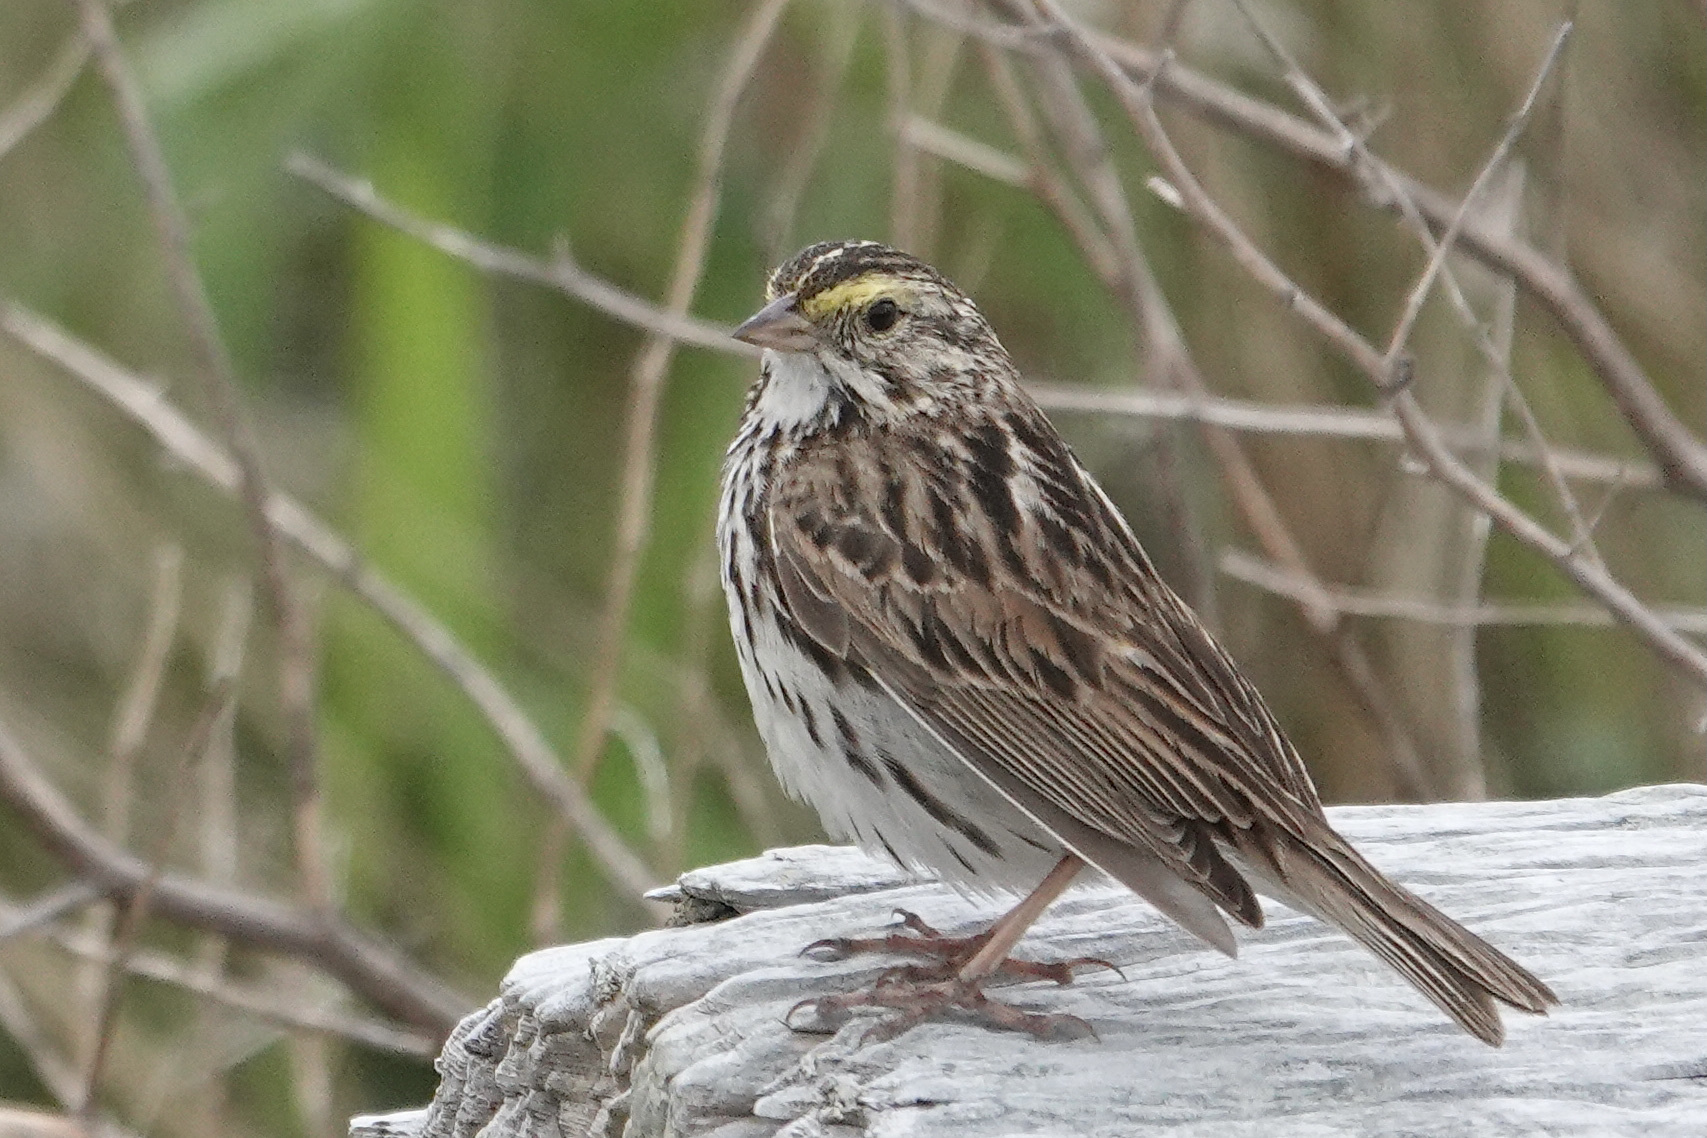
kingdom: Animalia
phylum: Chordata
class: Aves
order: Passeriformes
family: Passerellidae
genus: Passerculus
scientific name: Passerculus sandwichensis
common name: Savannah sparrow
